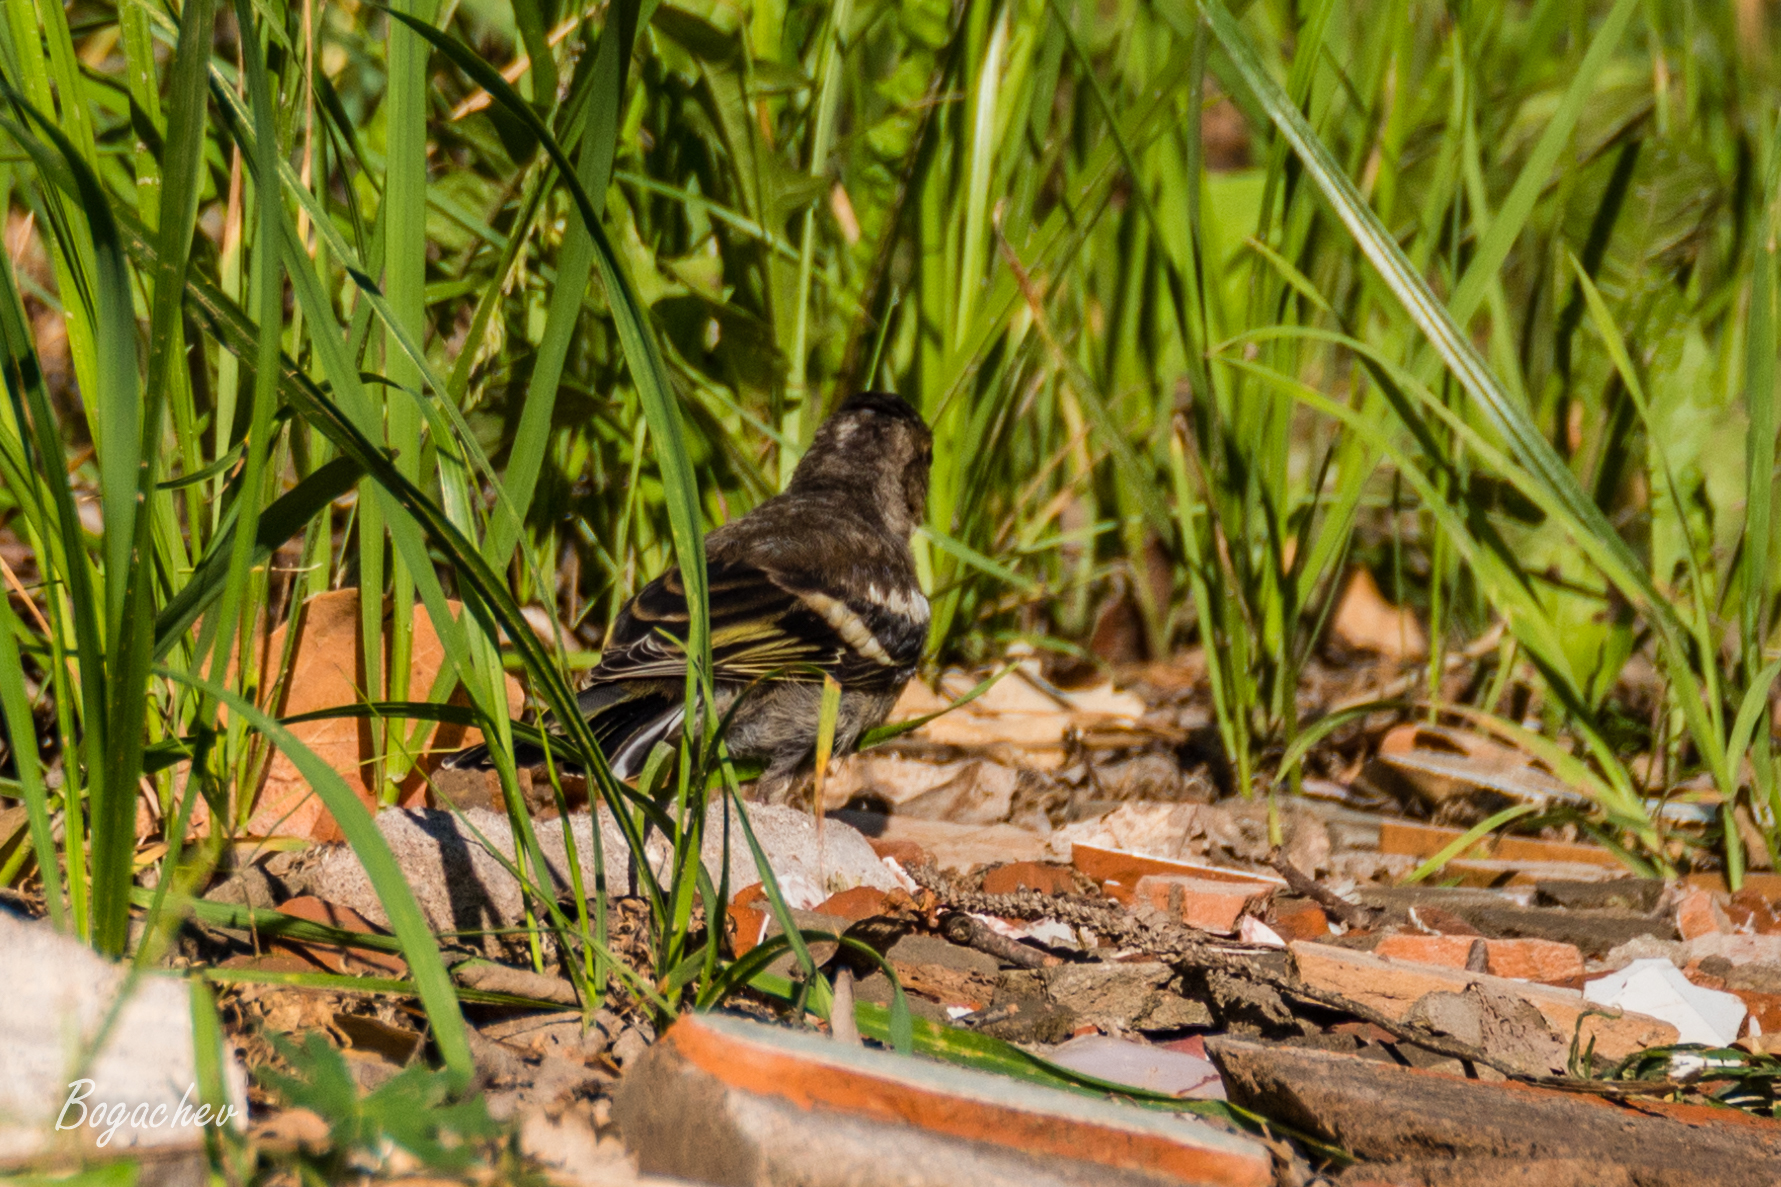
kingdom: Animalia
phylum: Chordata
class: Aves
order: Passeriformes
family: Fringillidae
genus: Fringilla
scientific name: Fringilla coelebs
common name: Common chaffinch
